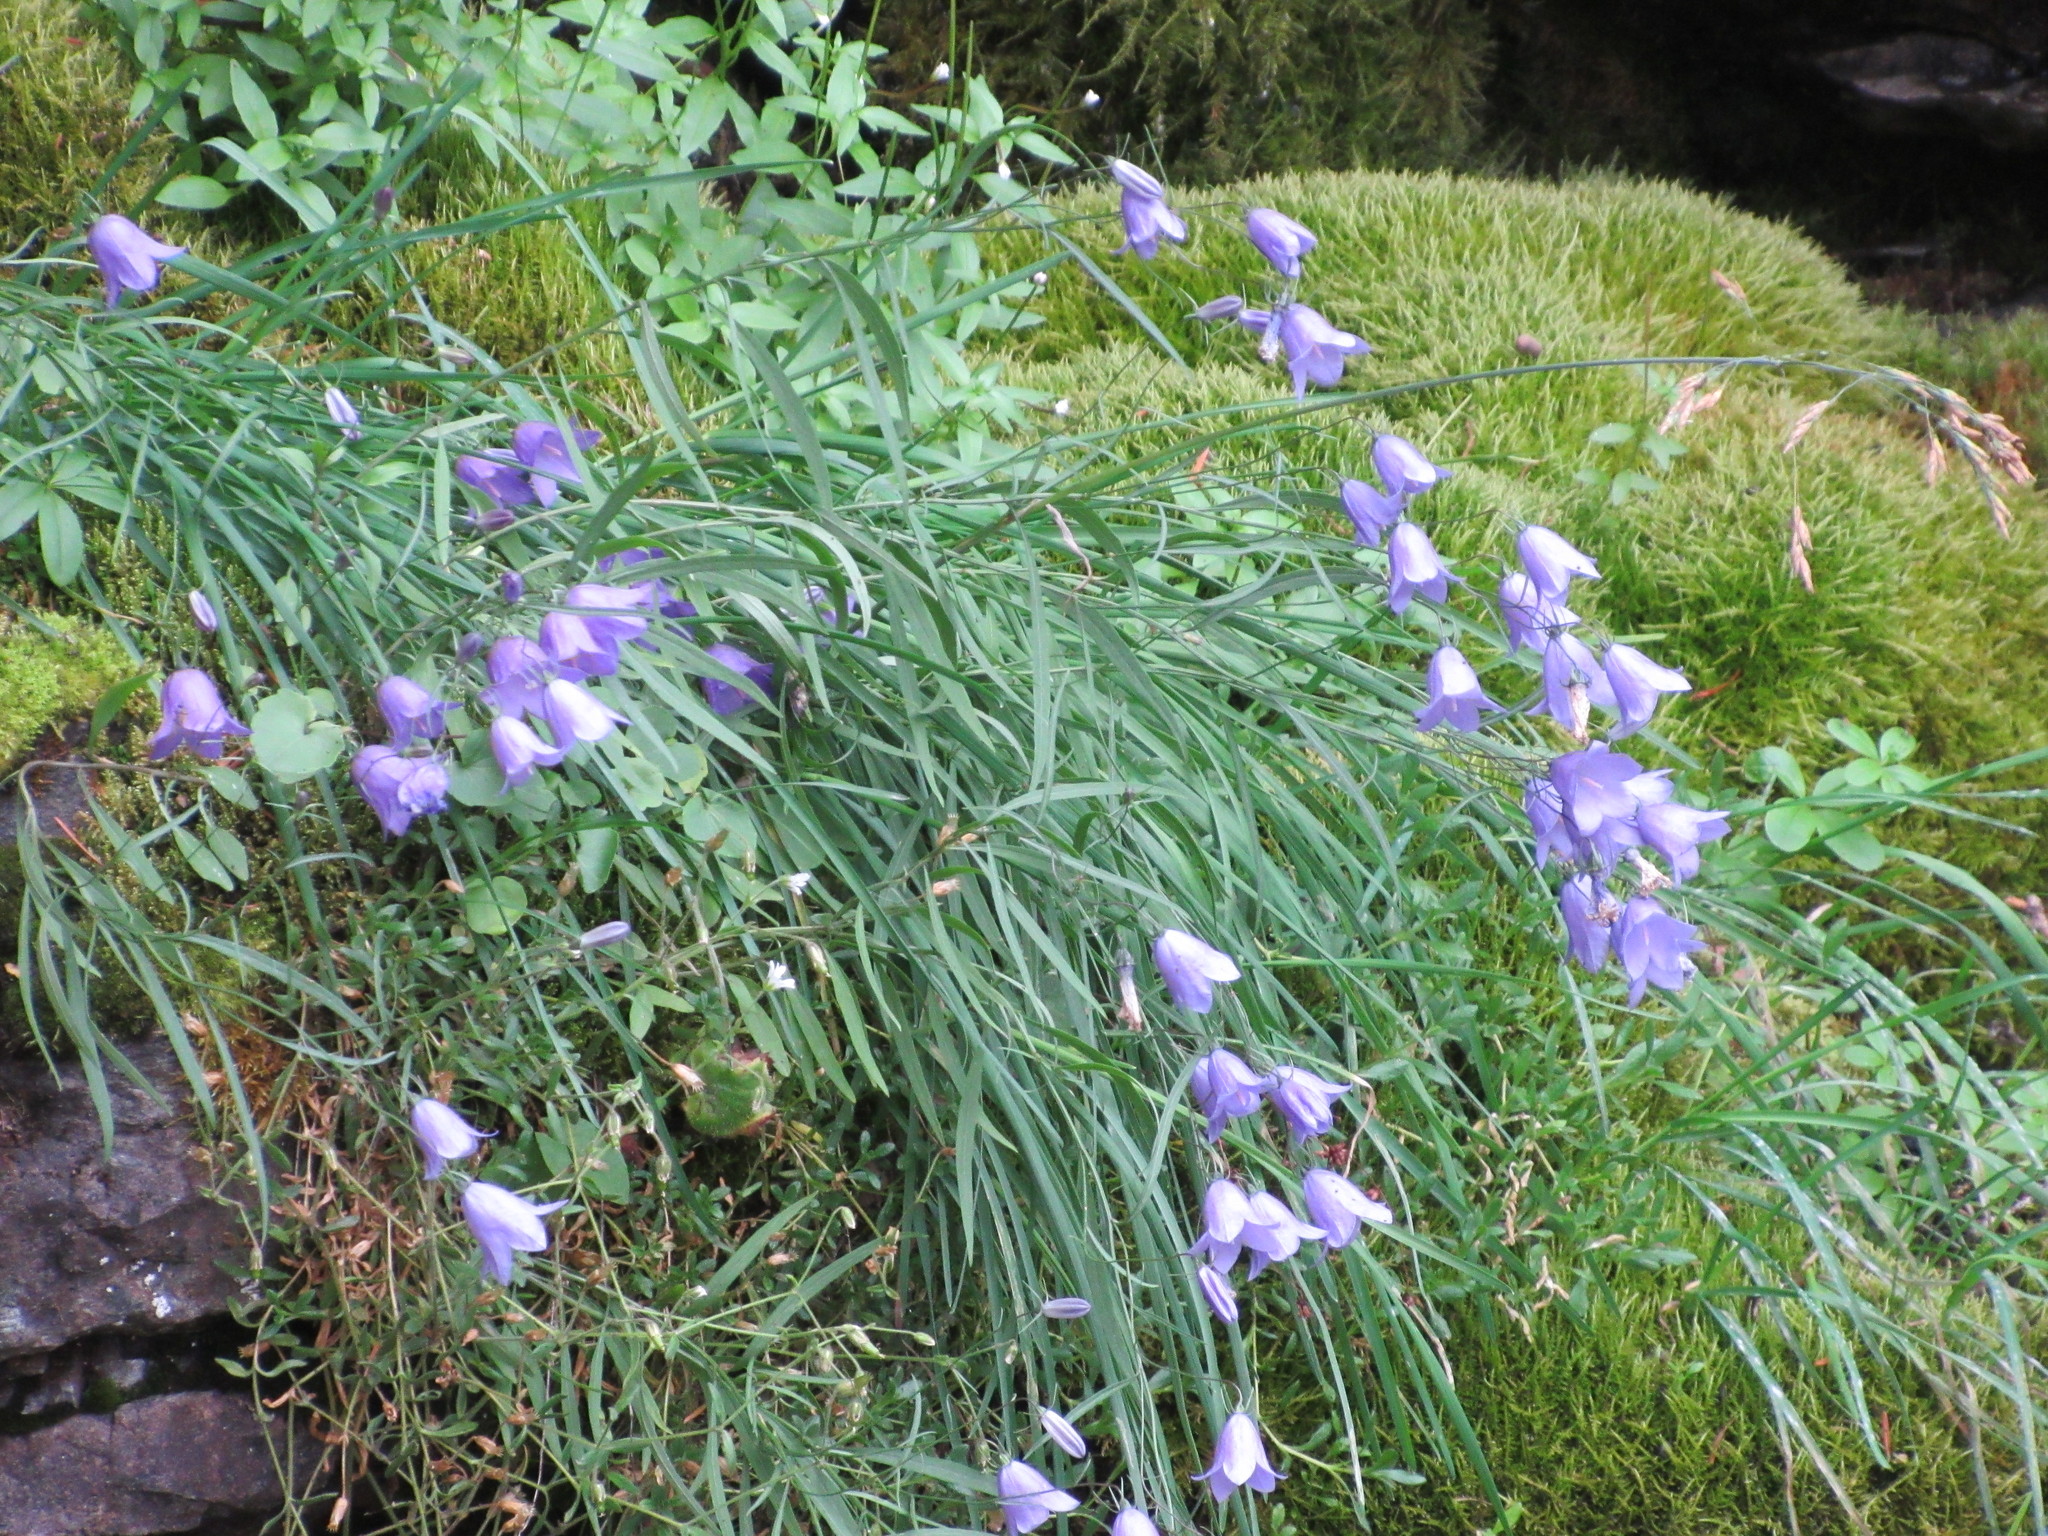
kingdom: Plantae
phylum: Tracheophyta
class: Magnoliopsida
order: Asterales
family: Campanulaceae
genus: Campanula
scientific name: Campanula petiolata
